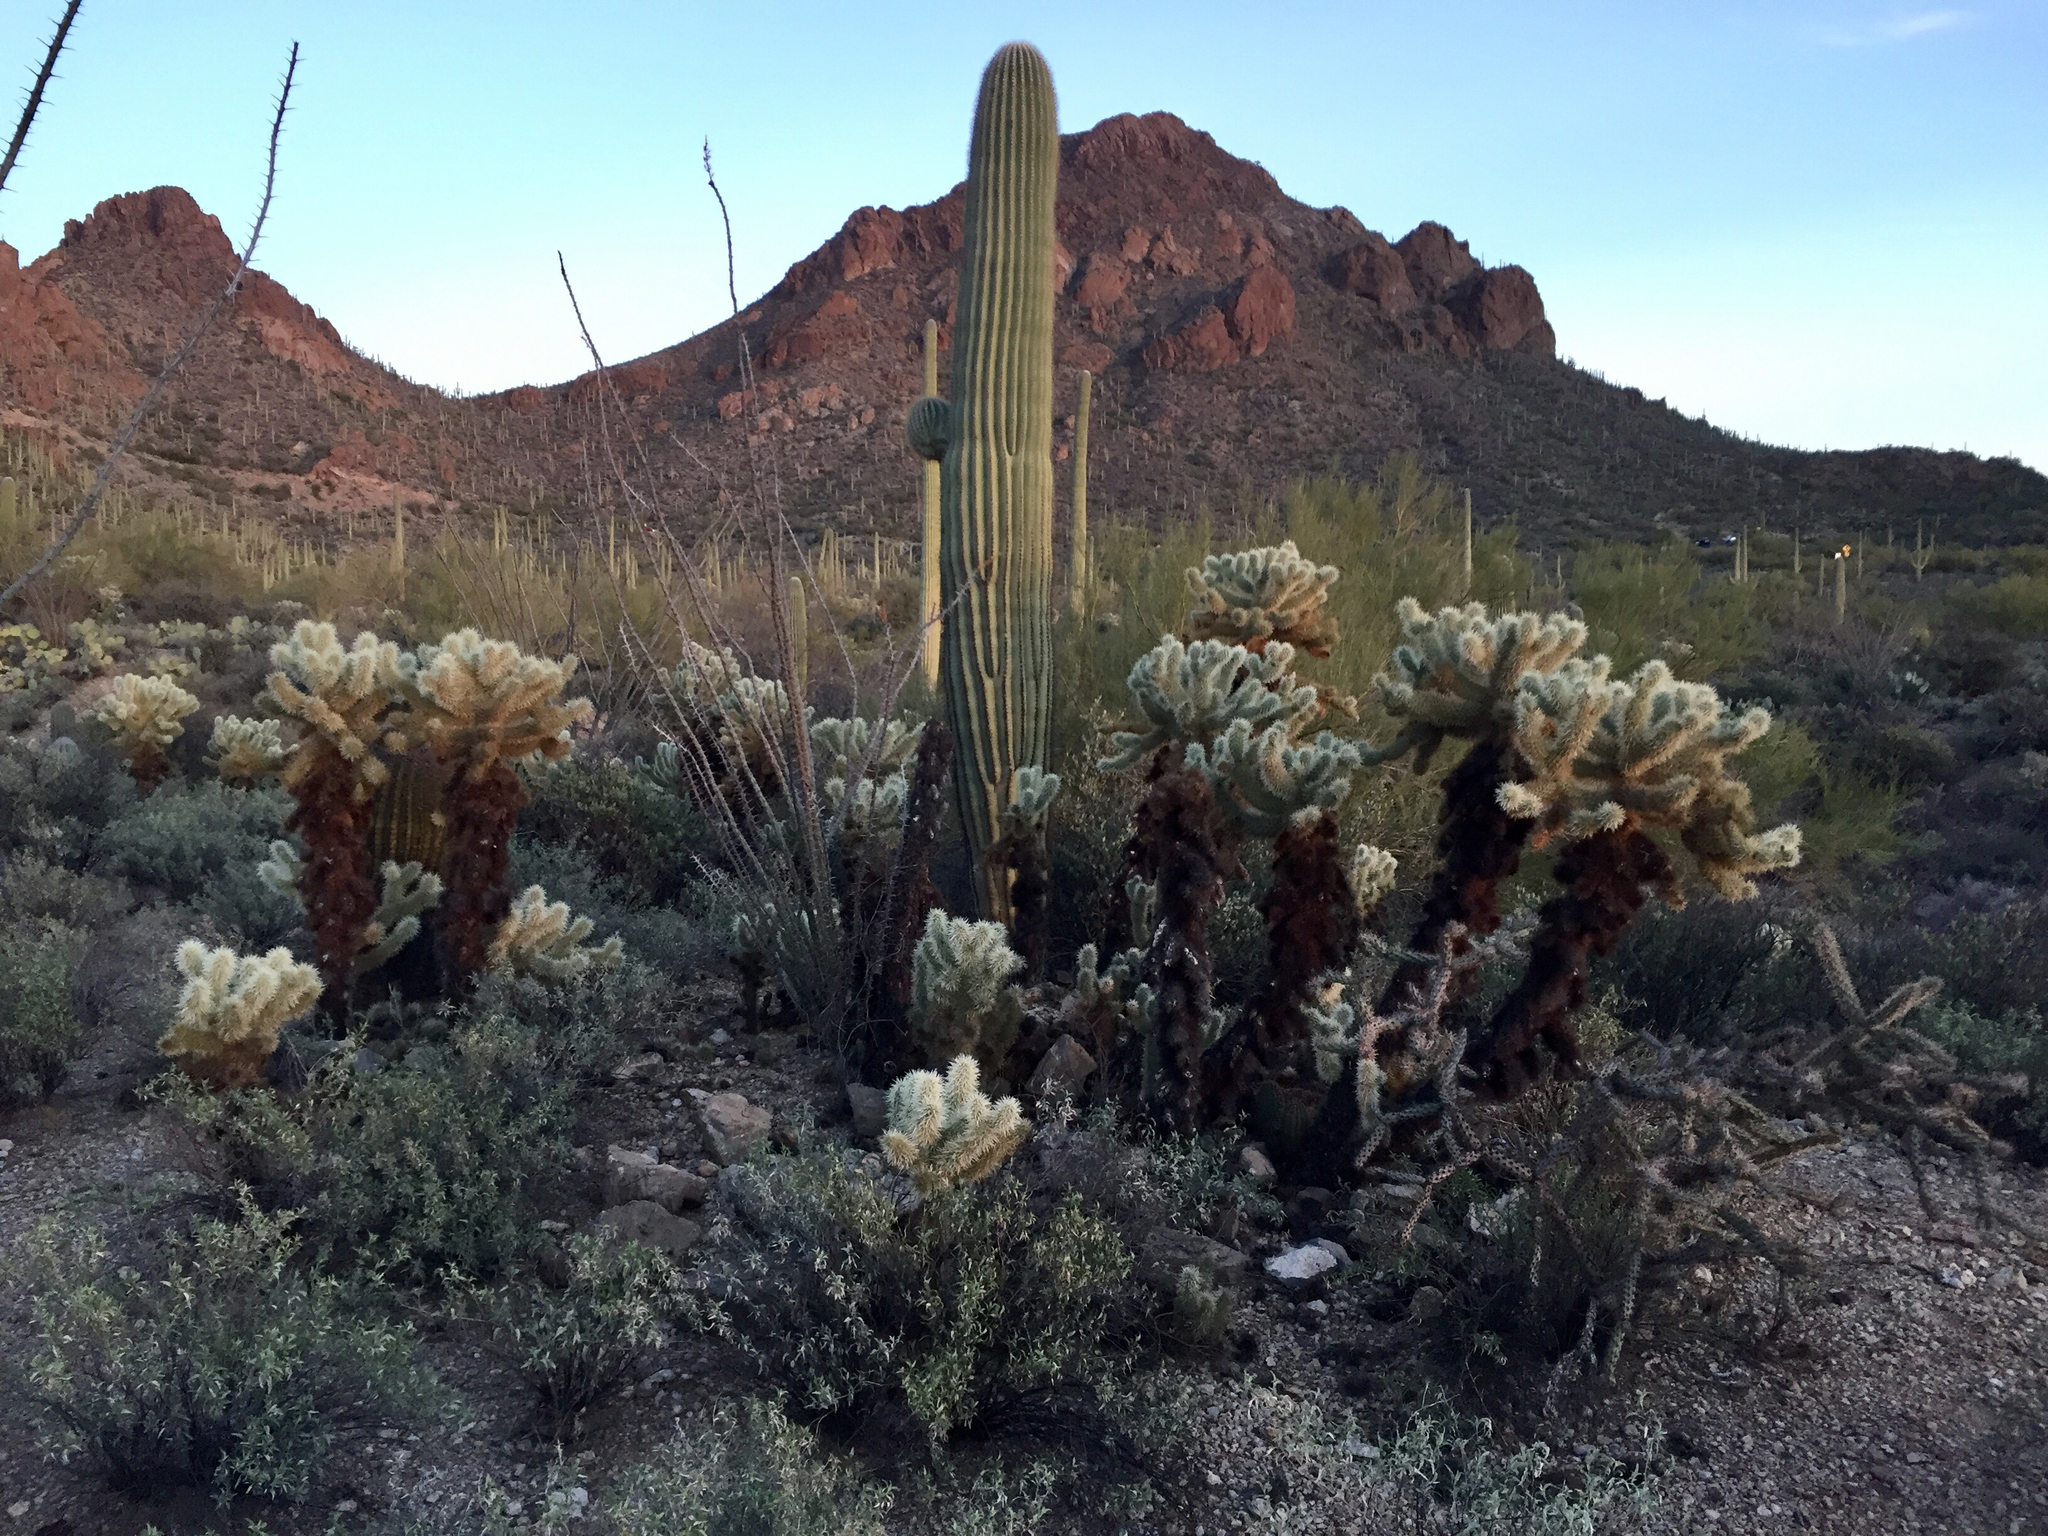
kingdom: Plantae
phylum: Tracheophyta
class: Magnoliopsida
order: Caryophyllales
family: Cactaceae
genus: Cylindropuntia
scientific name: Cylindropuntia fosbergii
